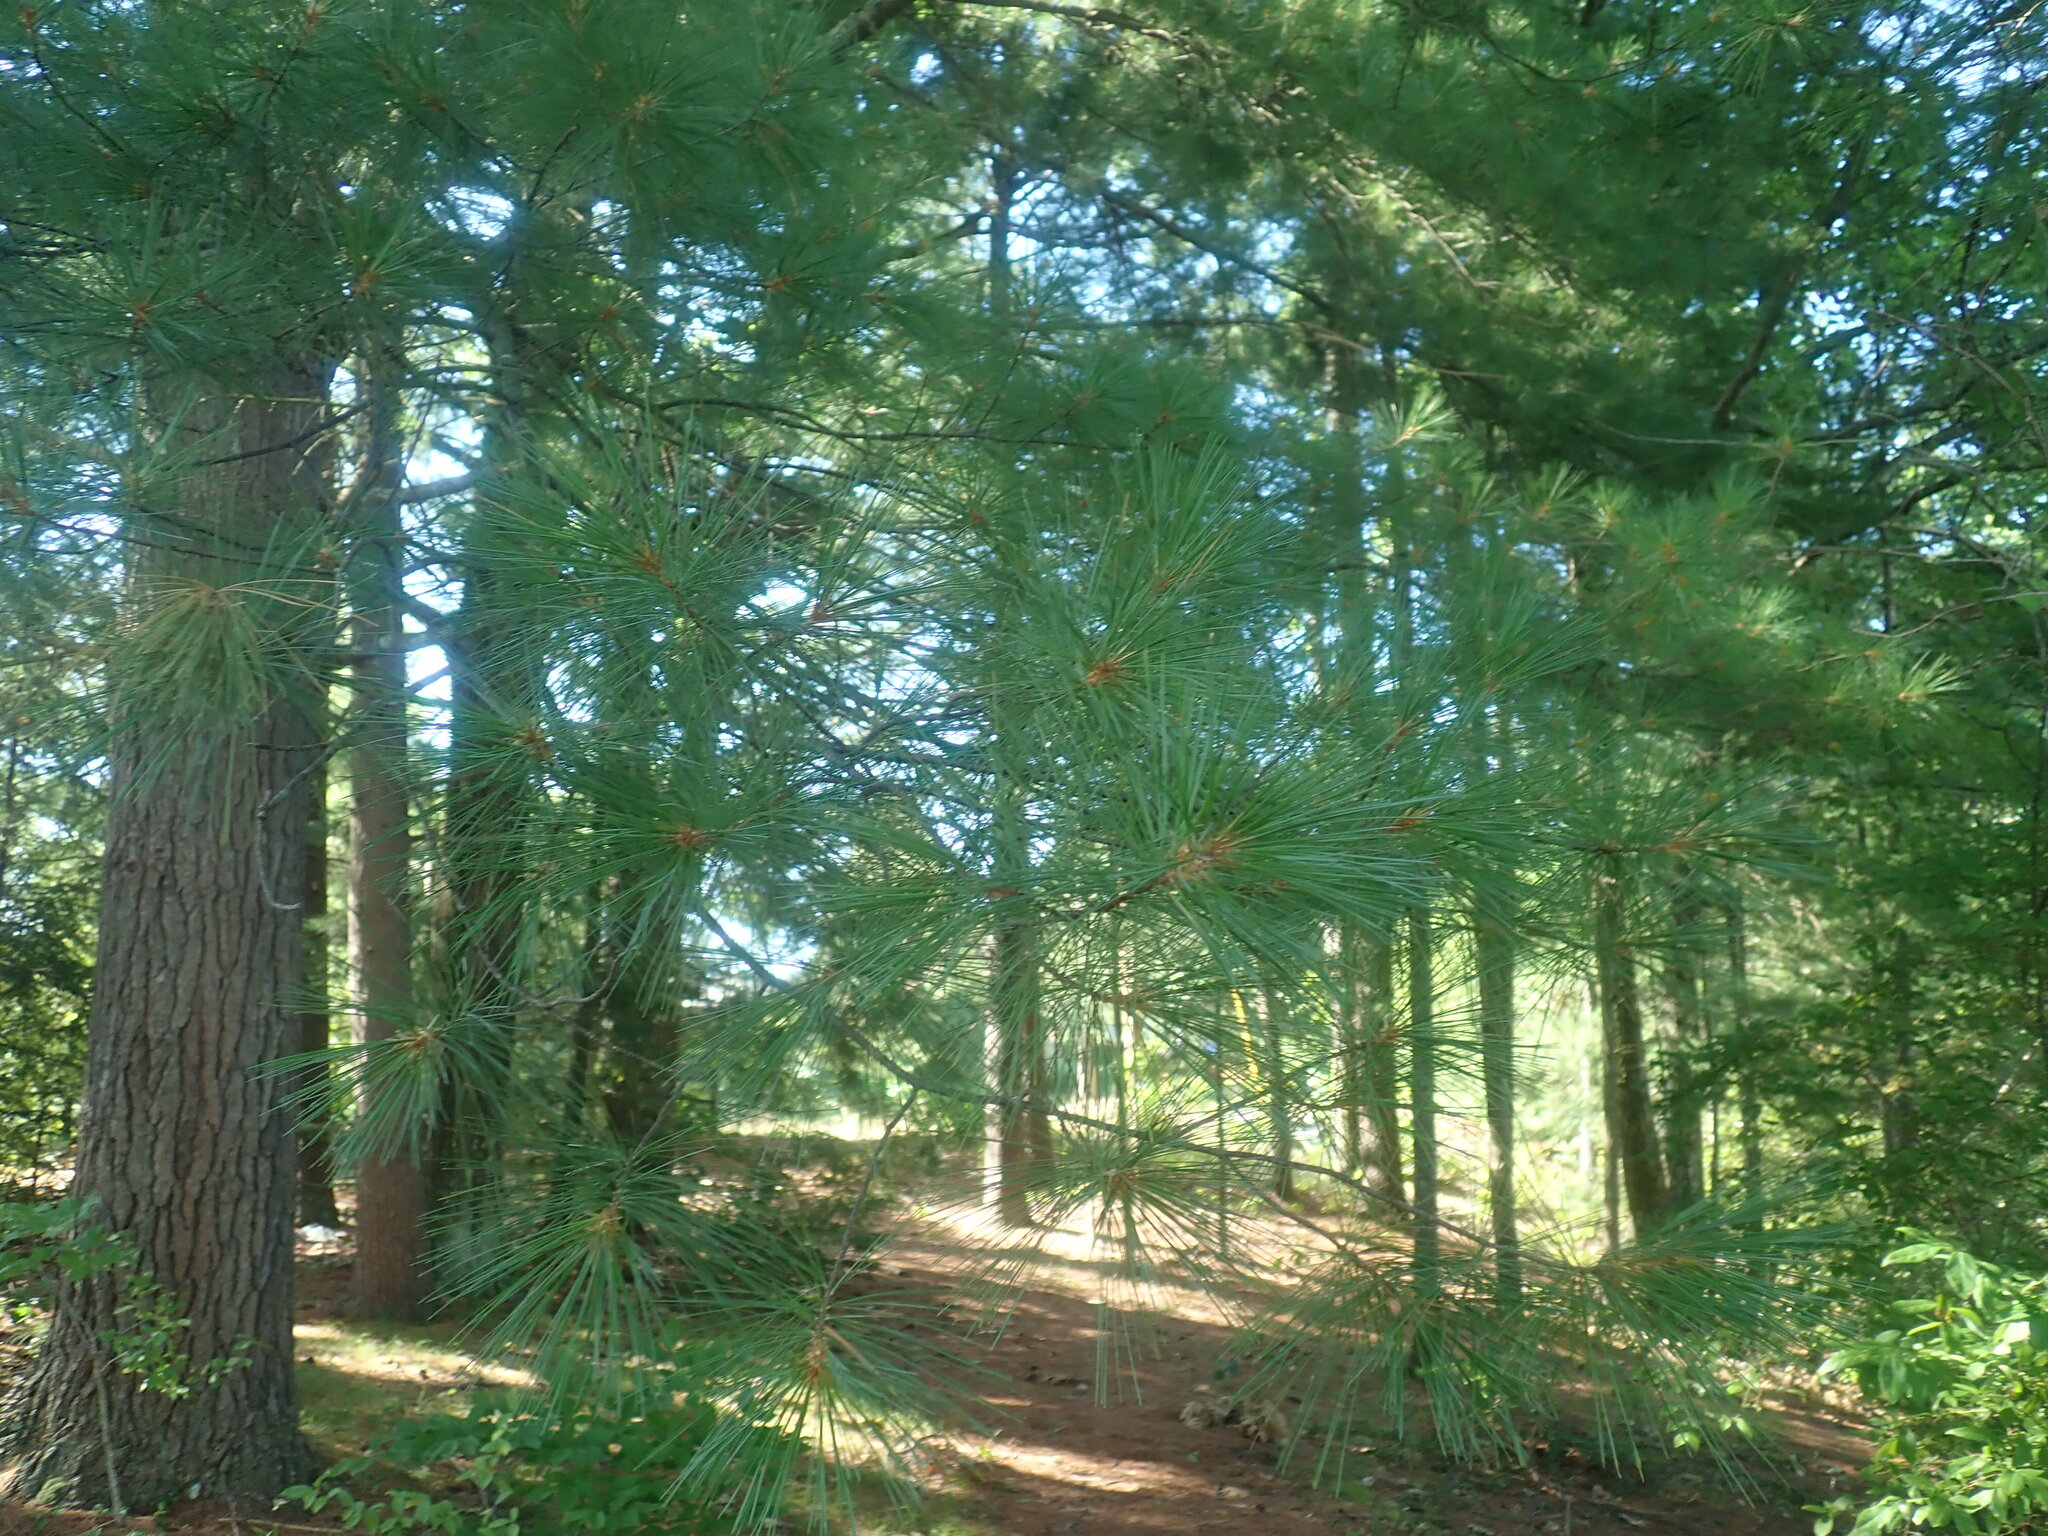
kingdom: Plantae
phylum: Tracheophyta
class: Pinopsida
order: Pinales
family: Pinaceae
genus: Pinus
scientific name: Pinus strobus
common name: Weymouth pine
